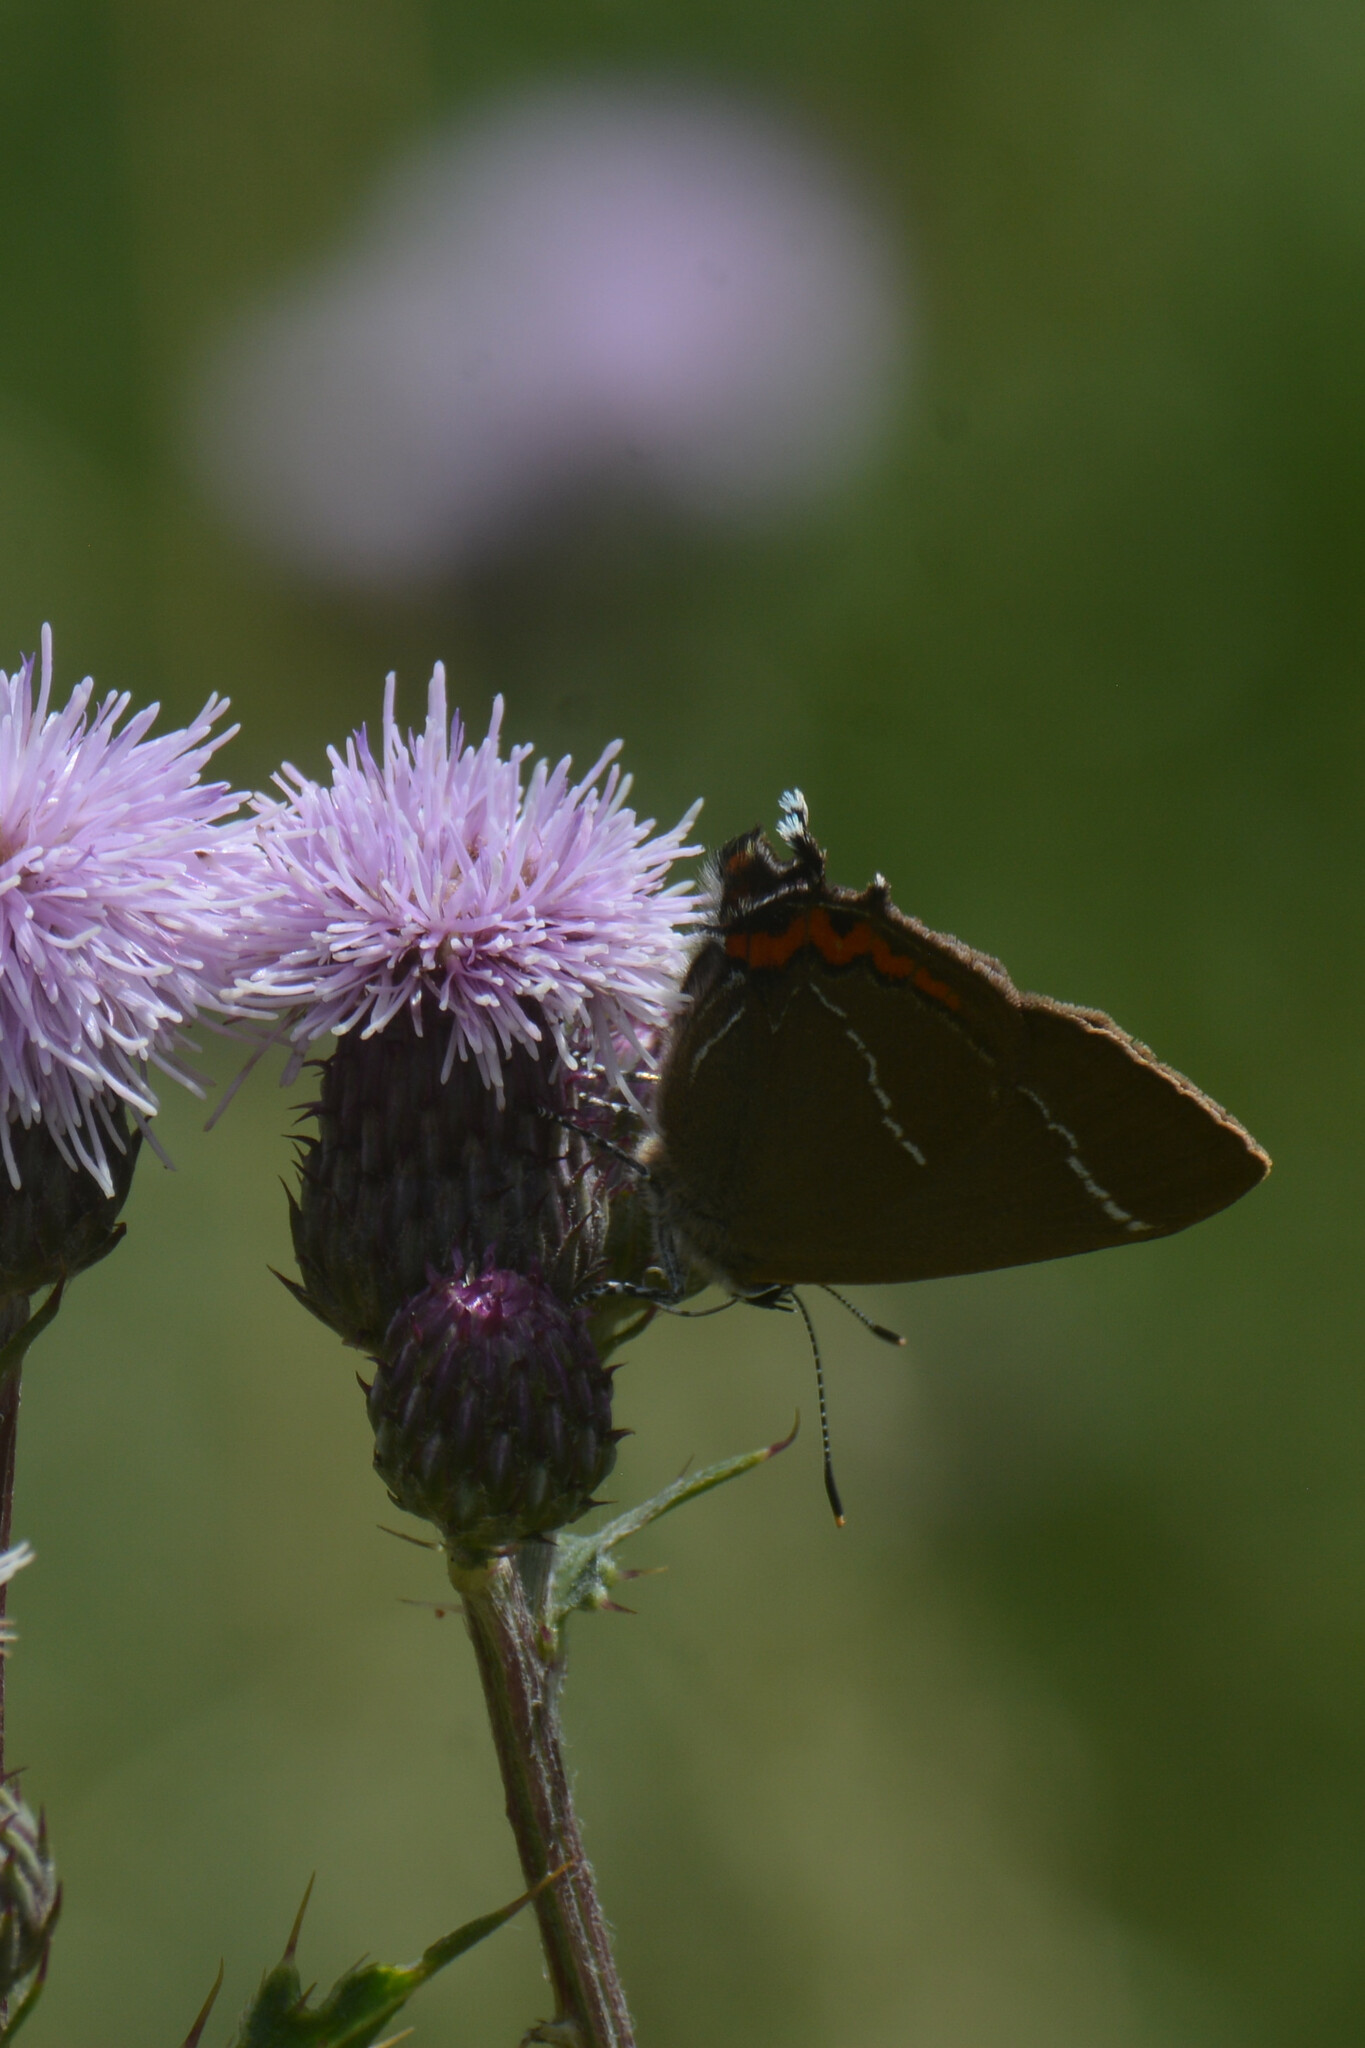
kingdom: Animalia
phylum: Arthropoda
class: Insecta
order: Lepidoptera
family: Lycaenidae
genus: Satyrium
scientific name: Satyrium w-album
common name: White-letter hairstreak
